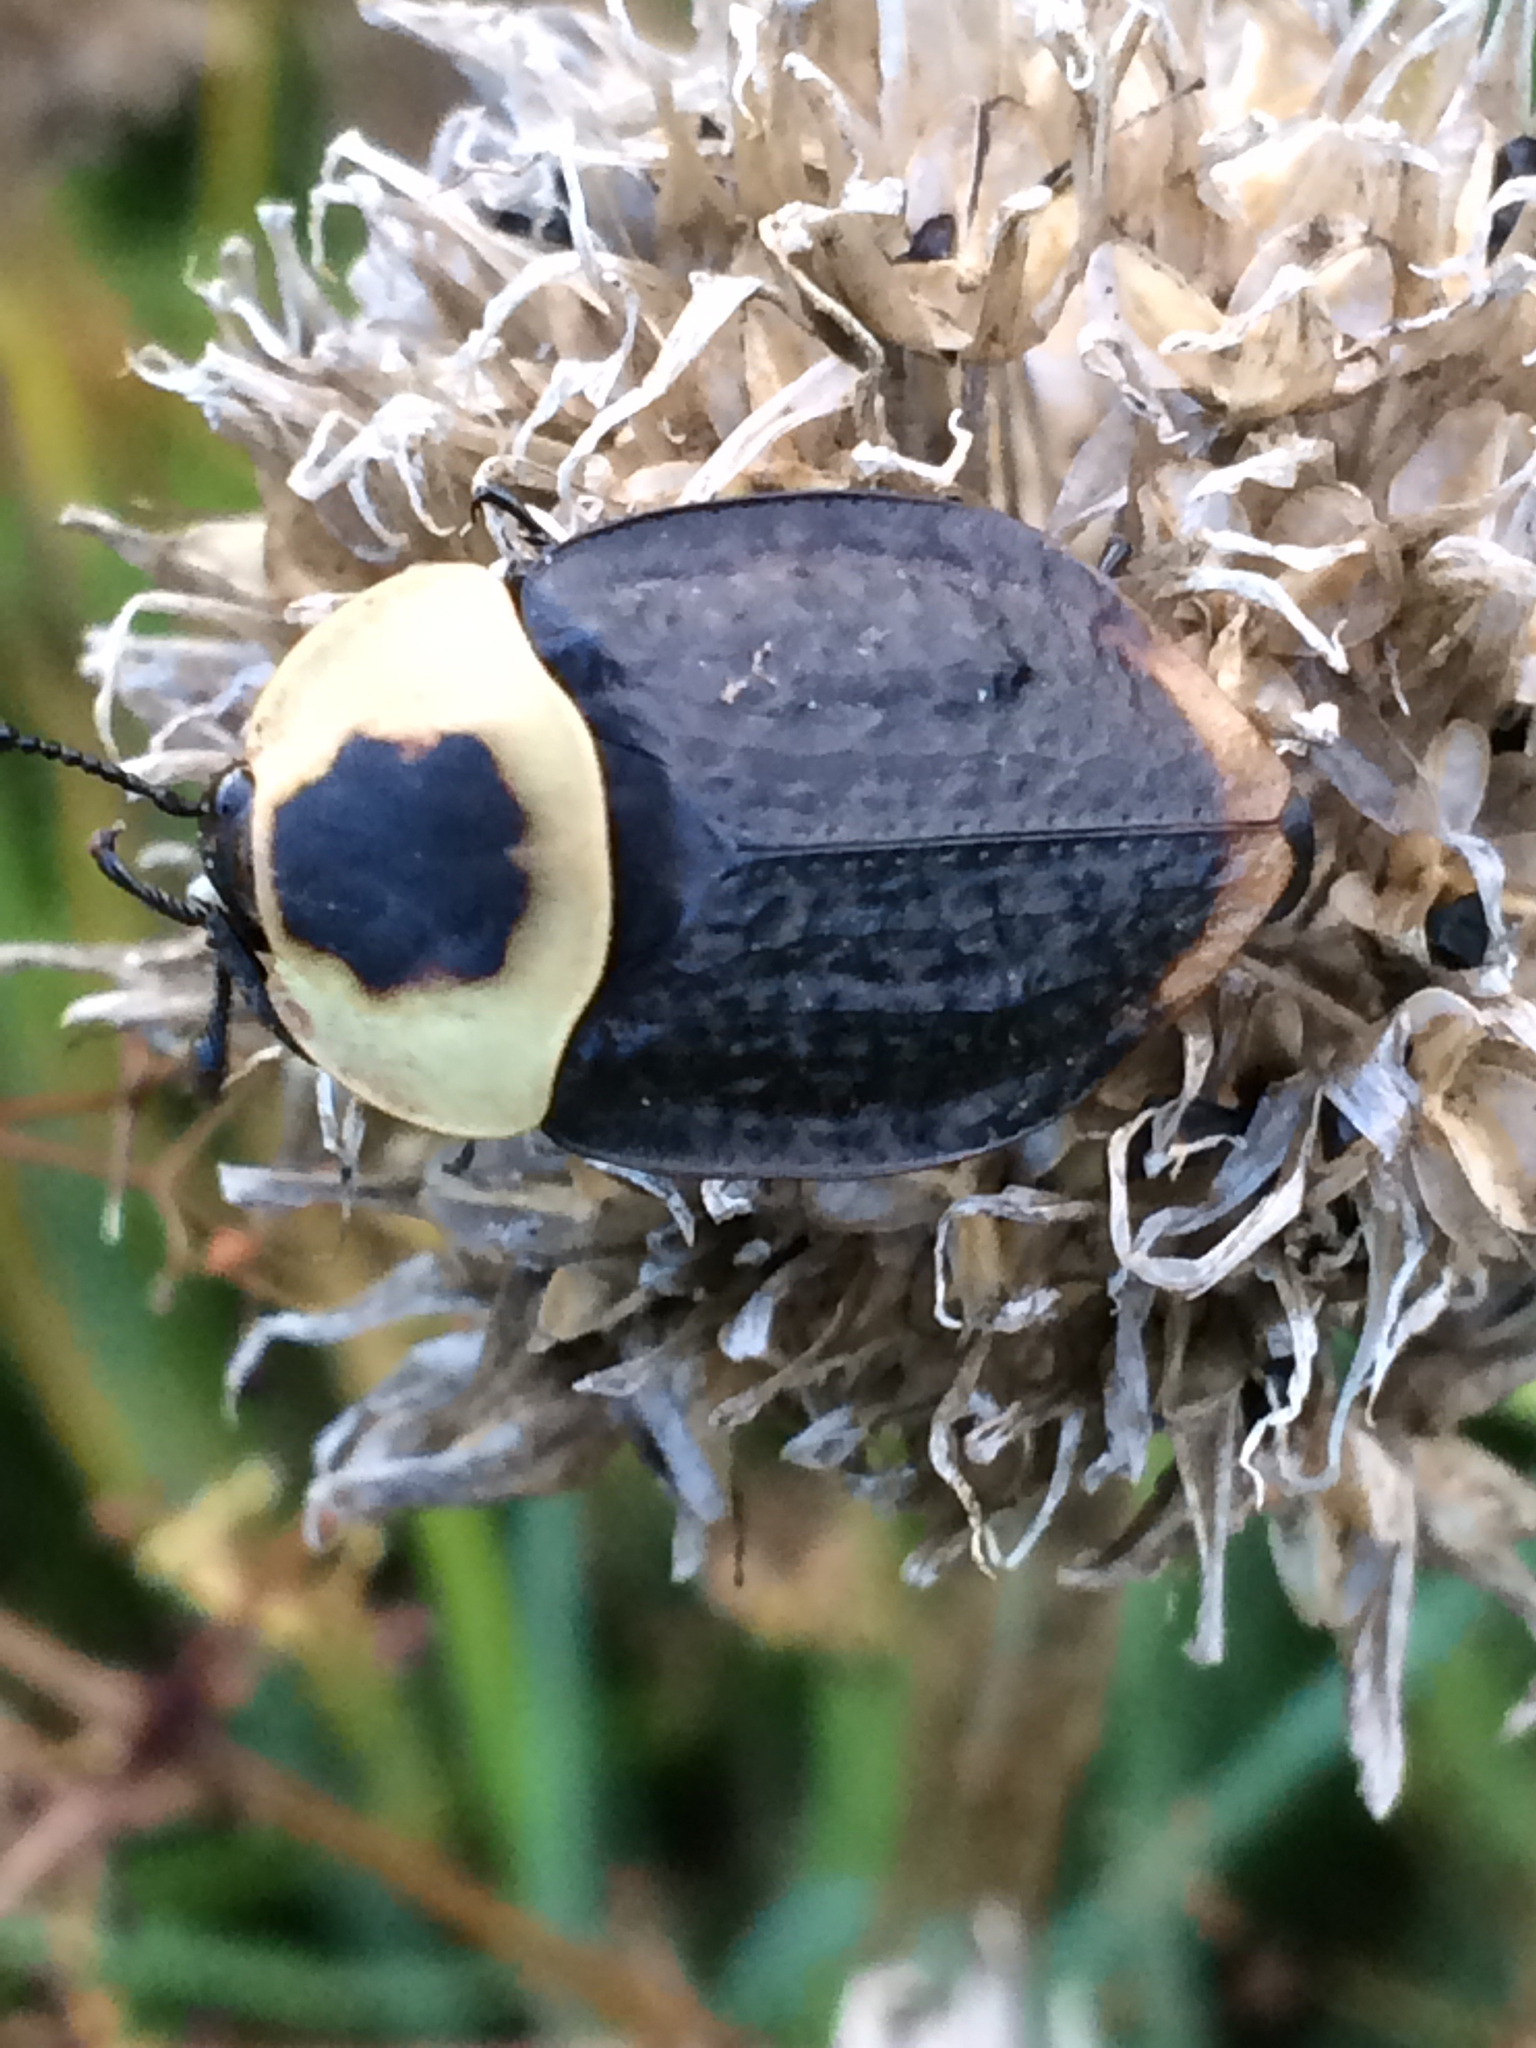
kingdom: Animalia
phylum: Arthropoda
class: Insecta
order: Coleoptera
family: Staphylinidae
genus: Necrophila
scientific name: Necrophila americana
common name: American carrion beetle
